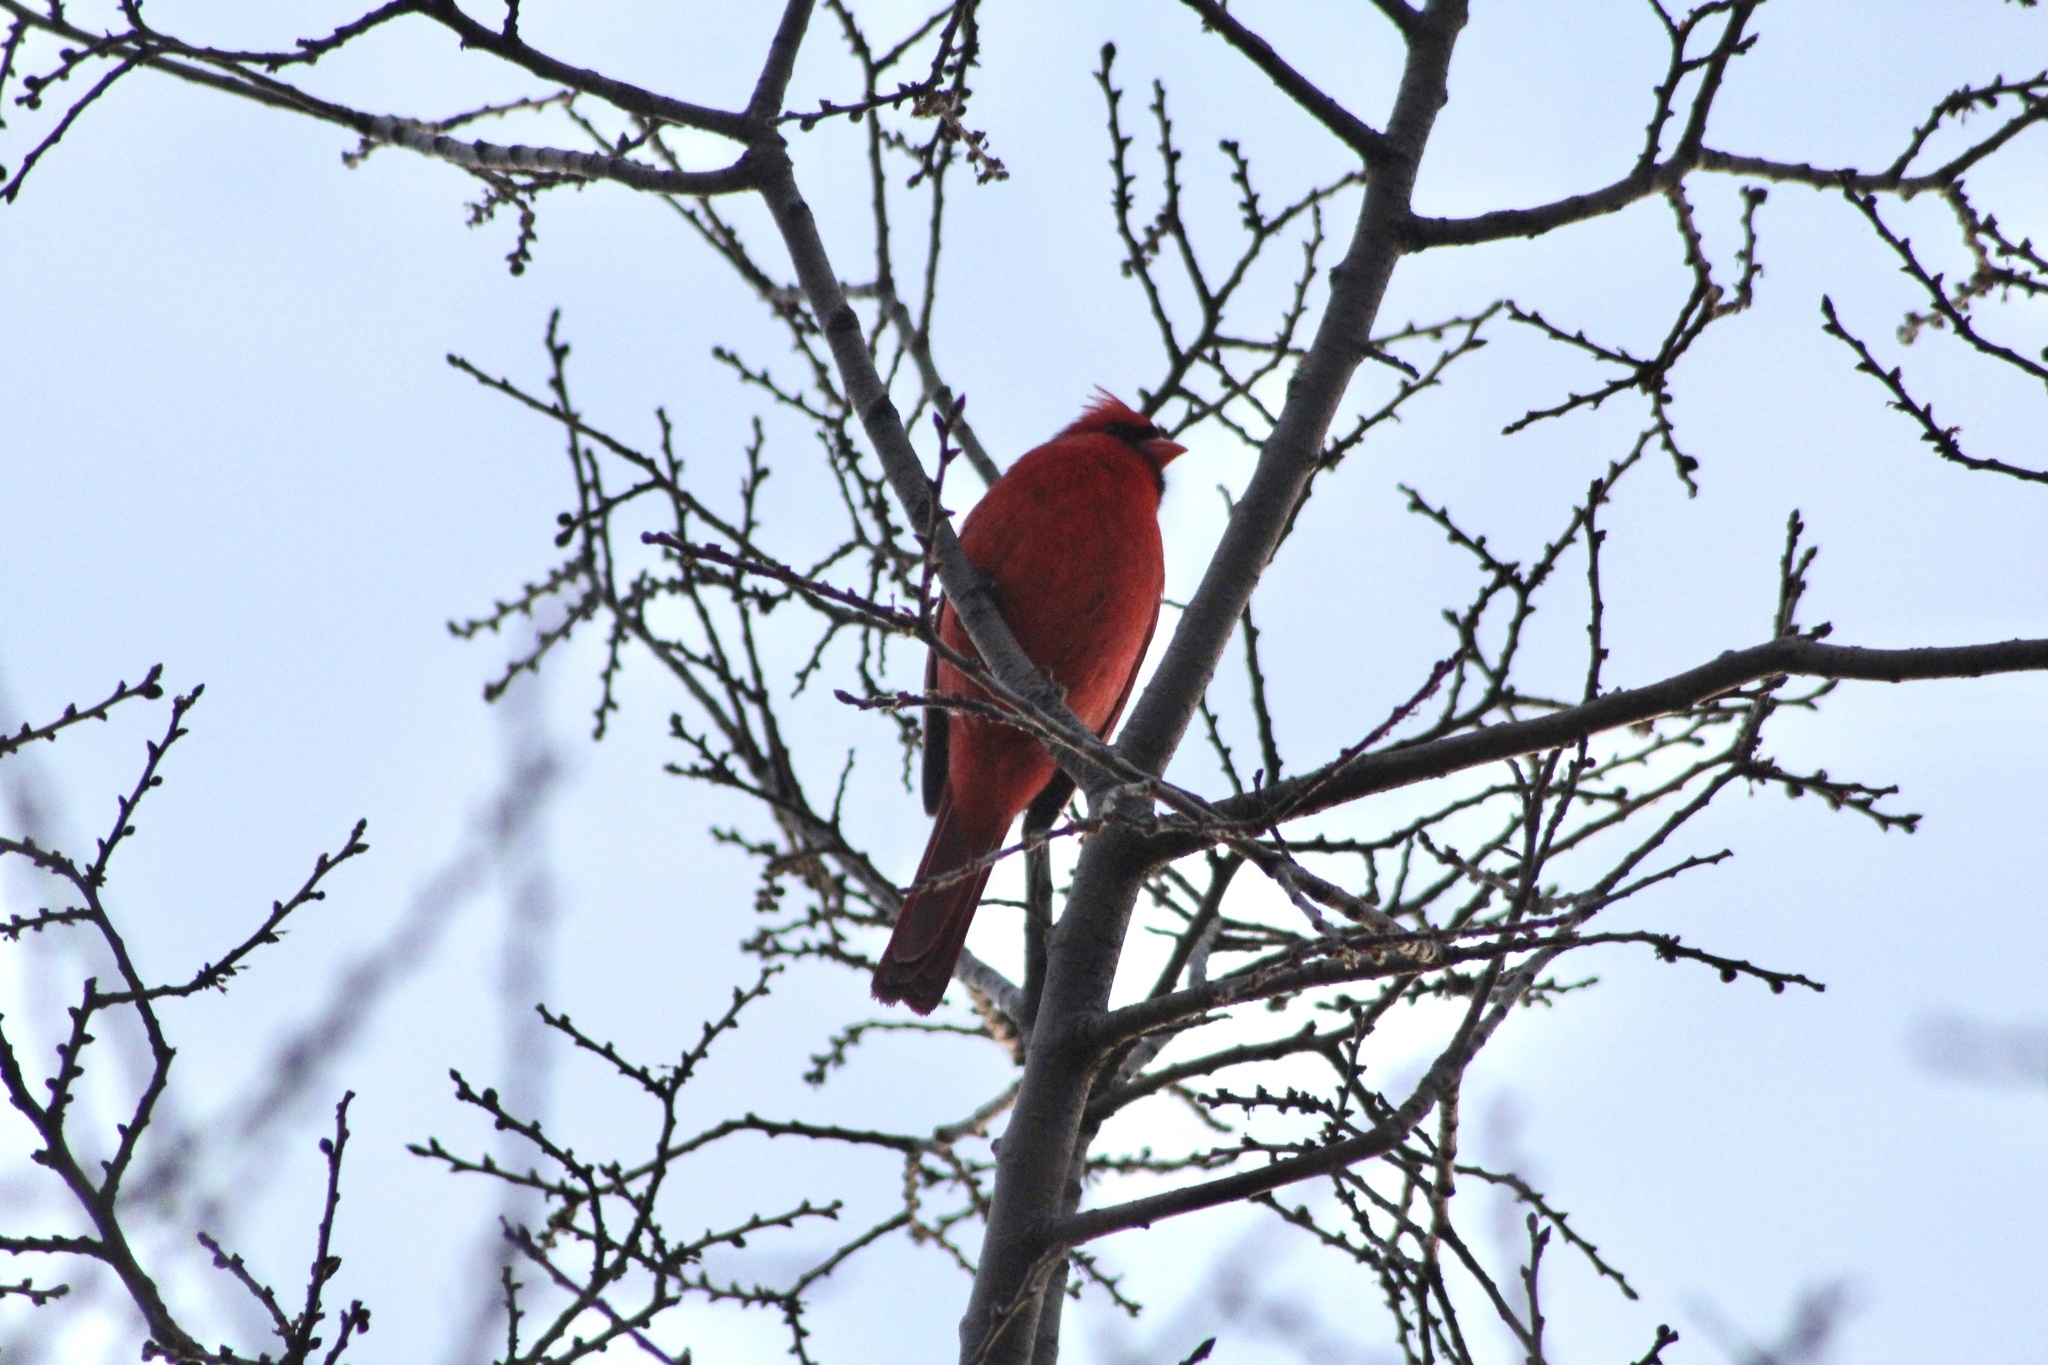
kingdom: Animalia
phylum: Chordata
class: Aves
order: Passeriformes
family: Cardinalidae
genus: Cardinalis
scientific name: Cardinalis cardinalis
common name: Northern cardinal
